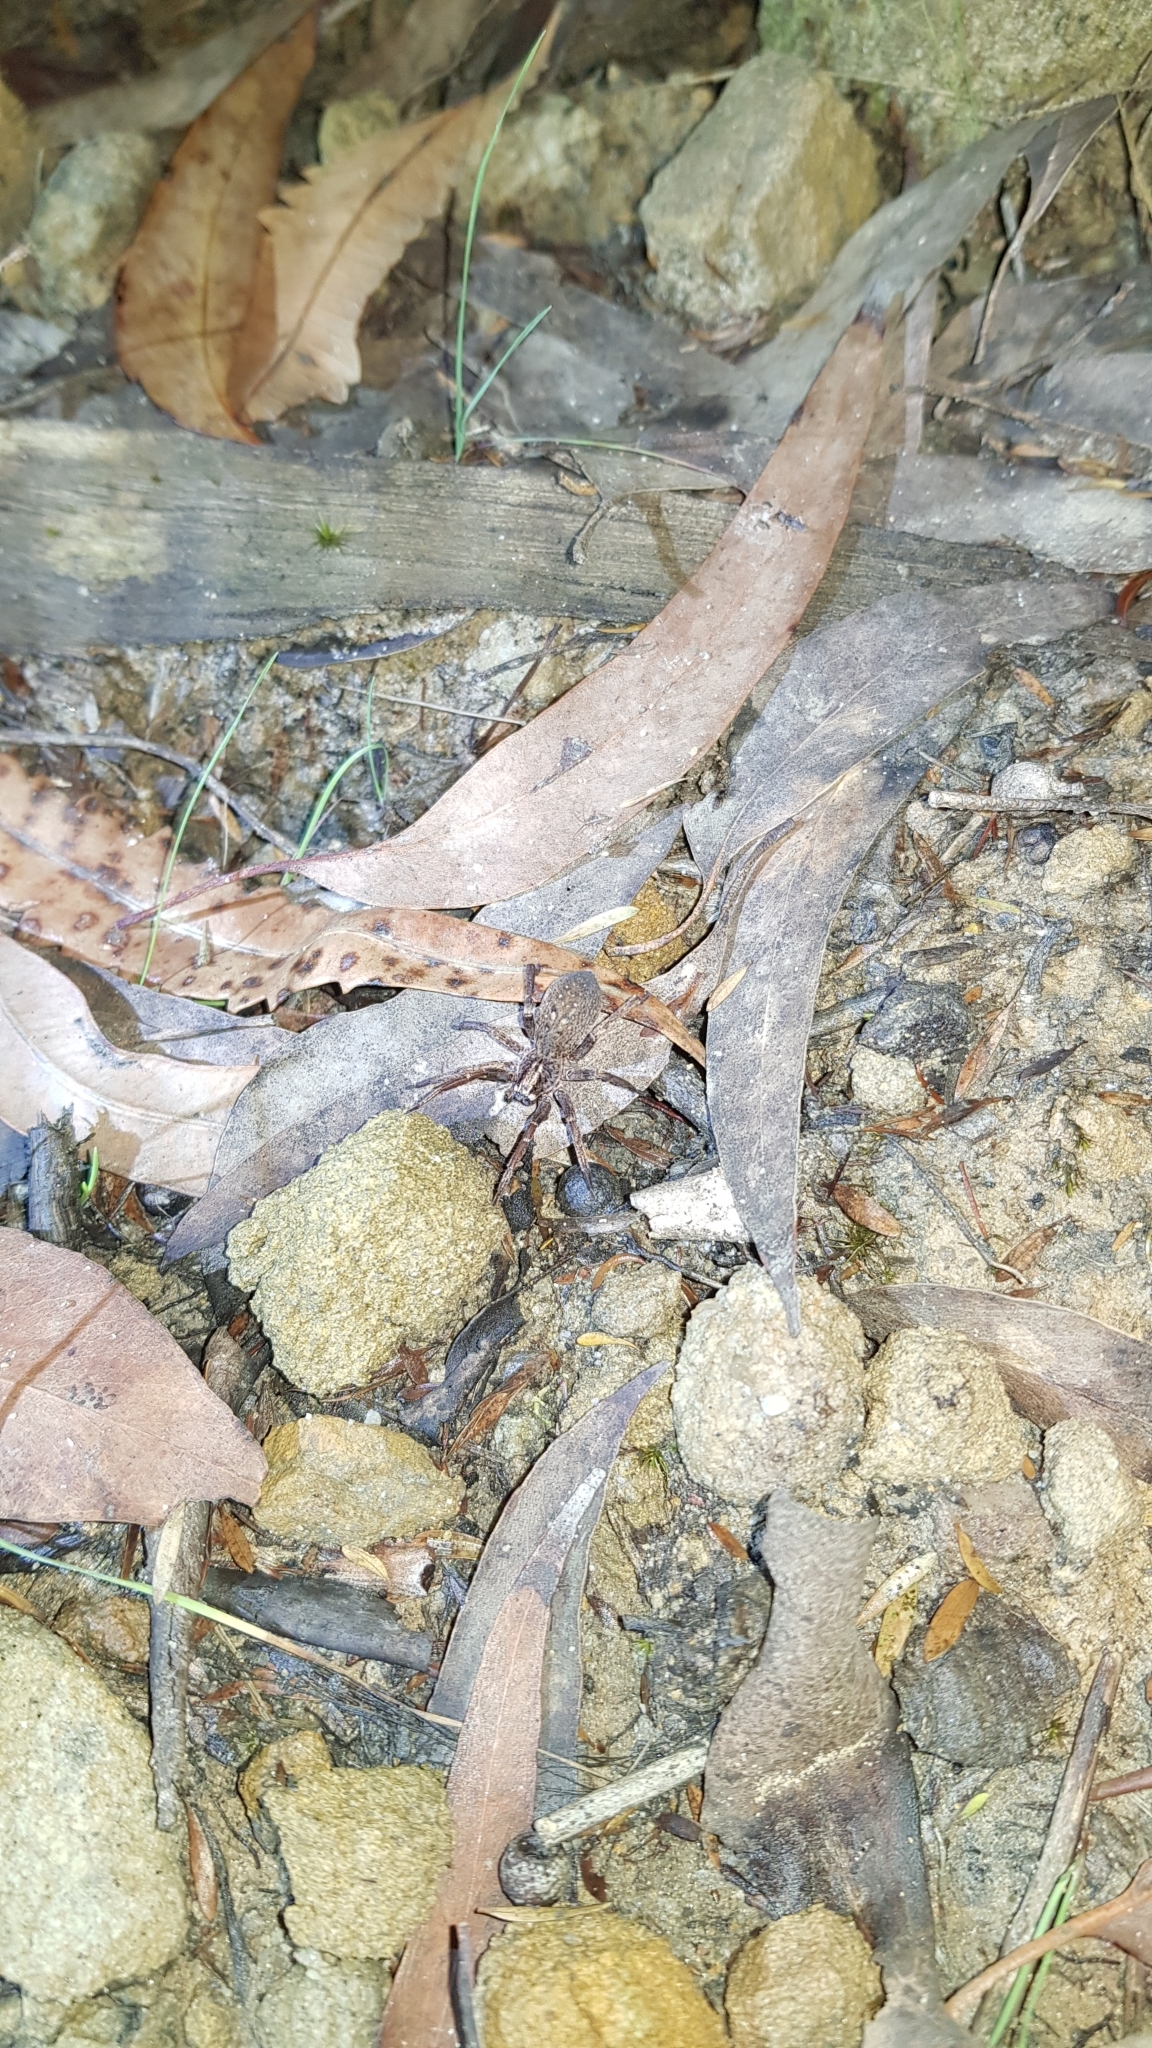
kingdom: Animalia
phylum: Arthropoda
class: Arachnida
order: Araneae
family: Miturgidae
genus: Mituliodon
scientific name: Mituliodon tarantulinus
